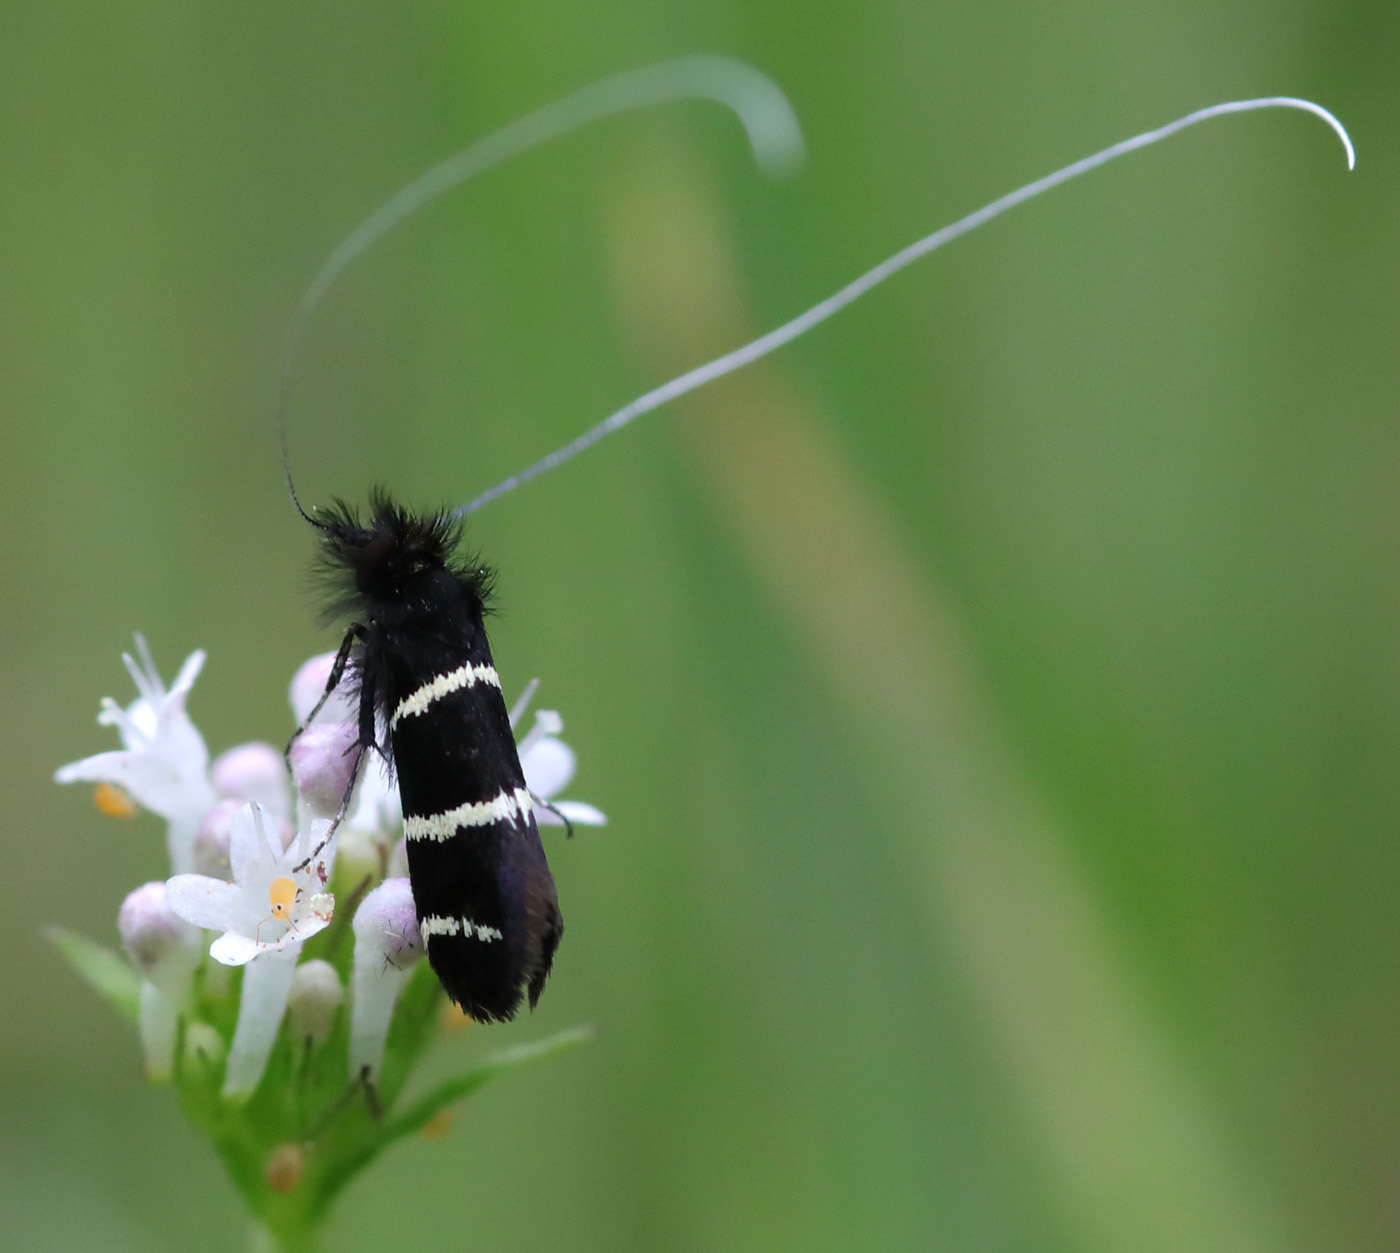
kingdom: Animalia
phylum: Arthropoda
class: Insecta
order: Lepidoptera
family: Adelidae
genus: Adela
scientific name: Adela trigrapha
